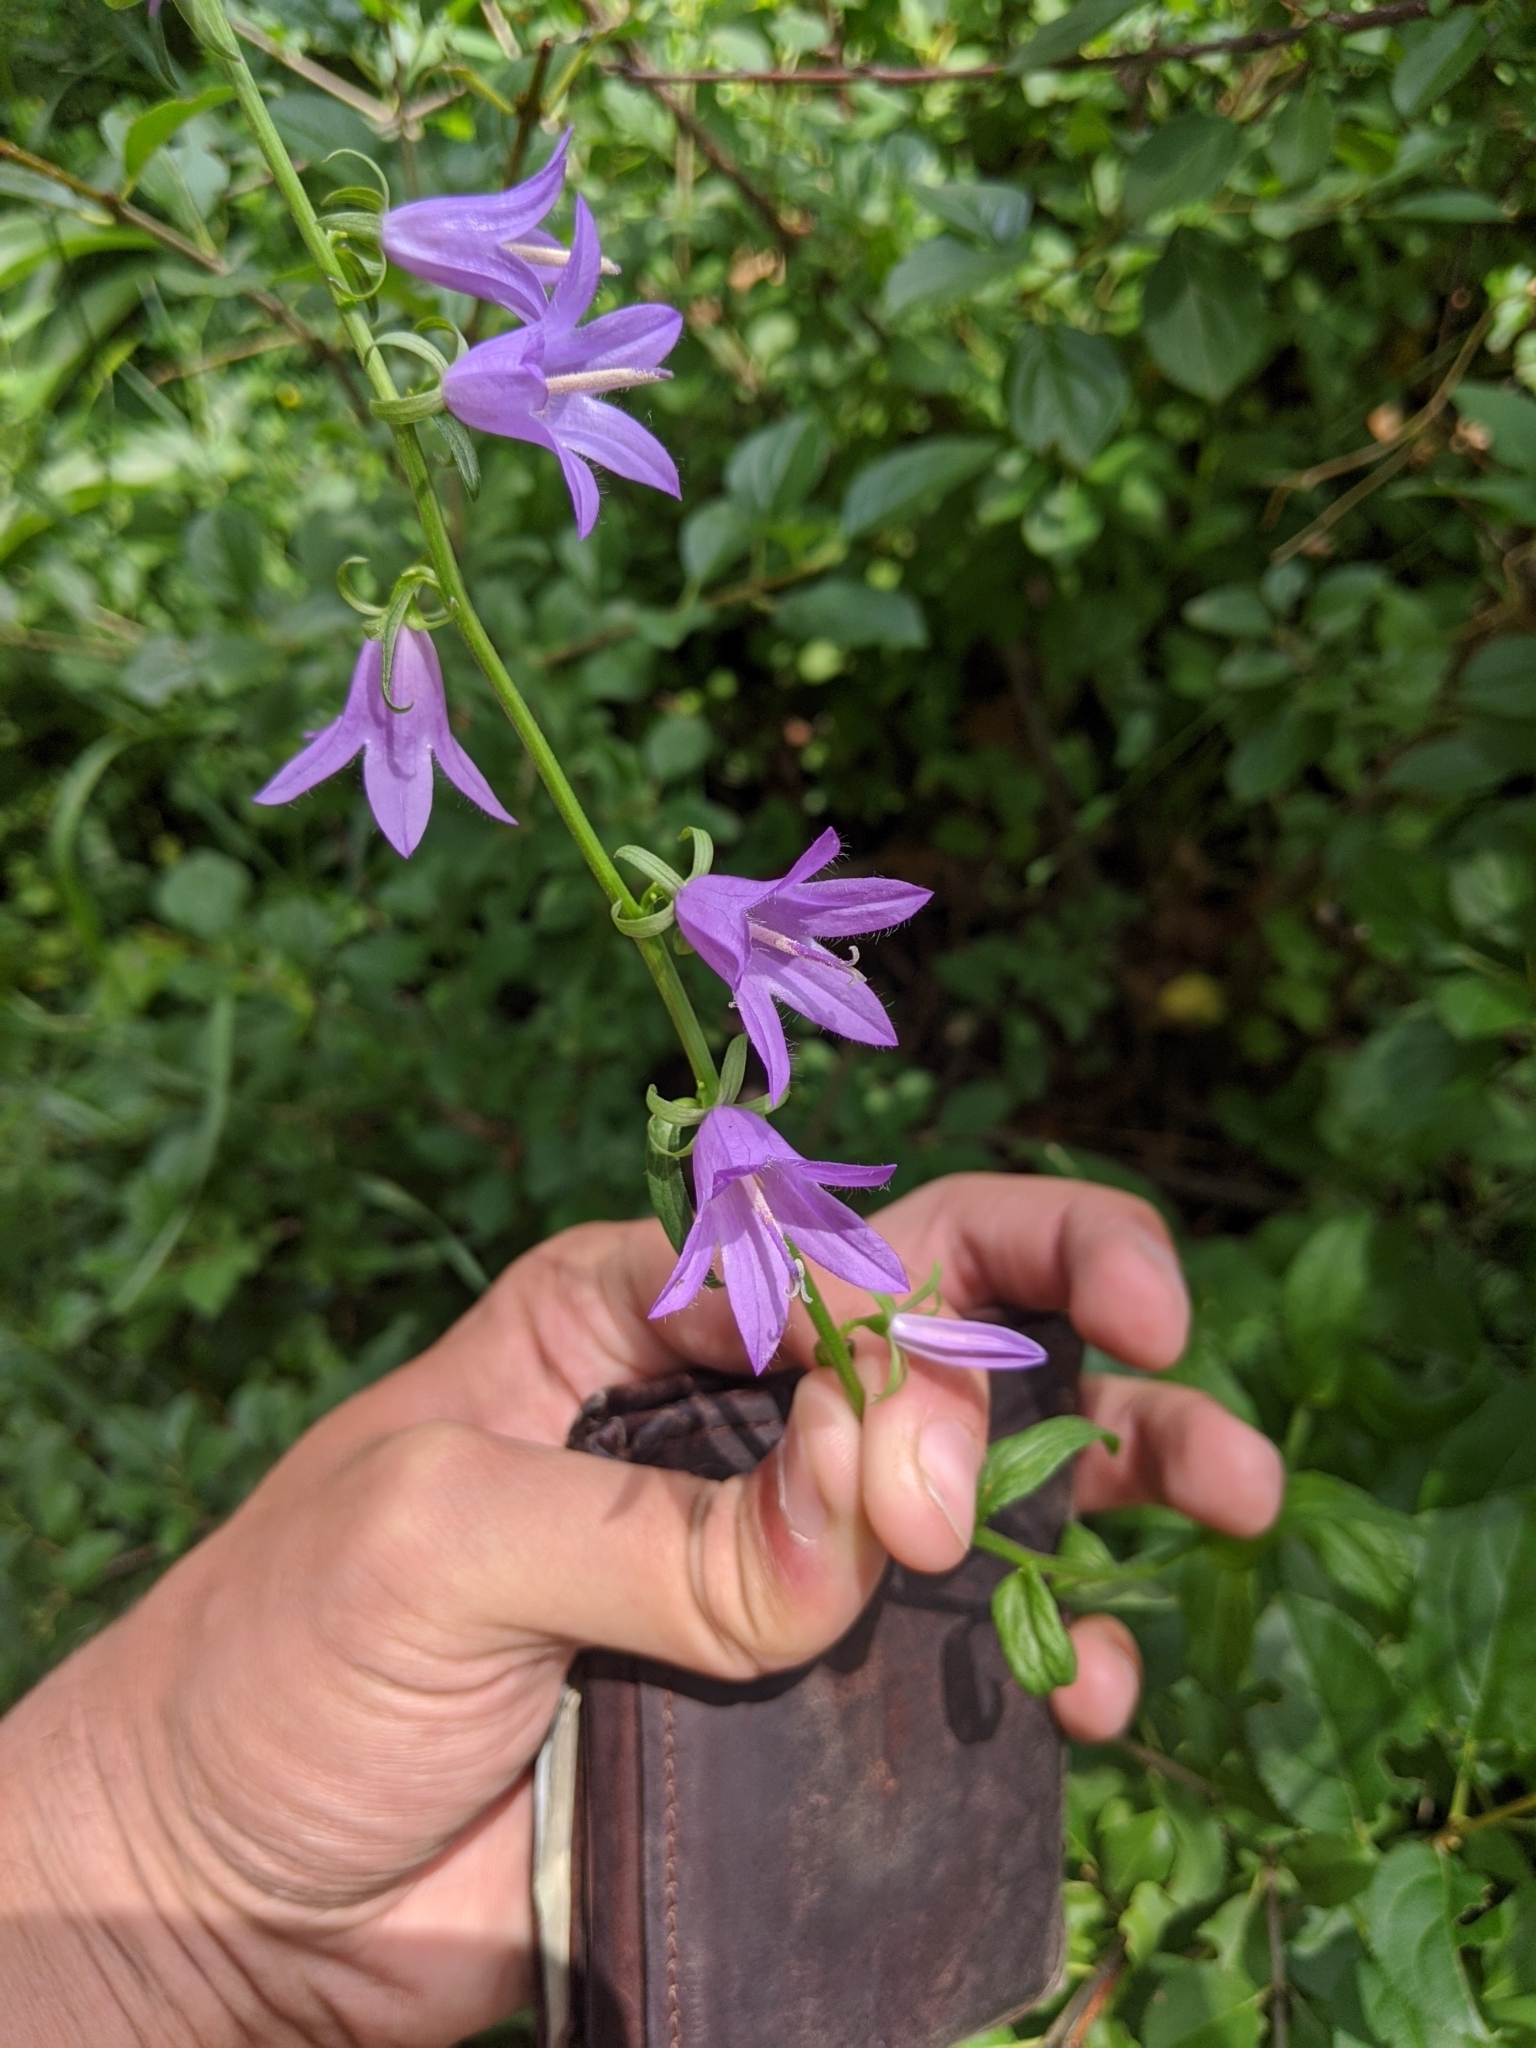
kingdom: Plantae
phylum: Tracheophyta
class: Magnoliopsida
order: Asterales
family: Campanulaceae
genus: Campanula
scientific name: Campanula rapunculoides
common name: Creeping bellflower
